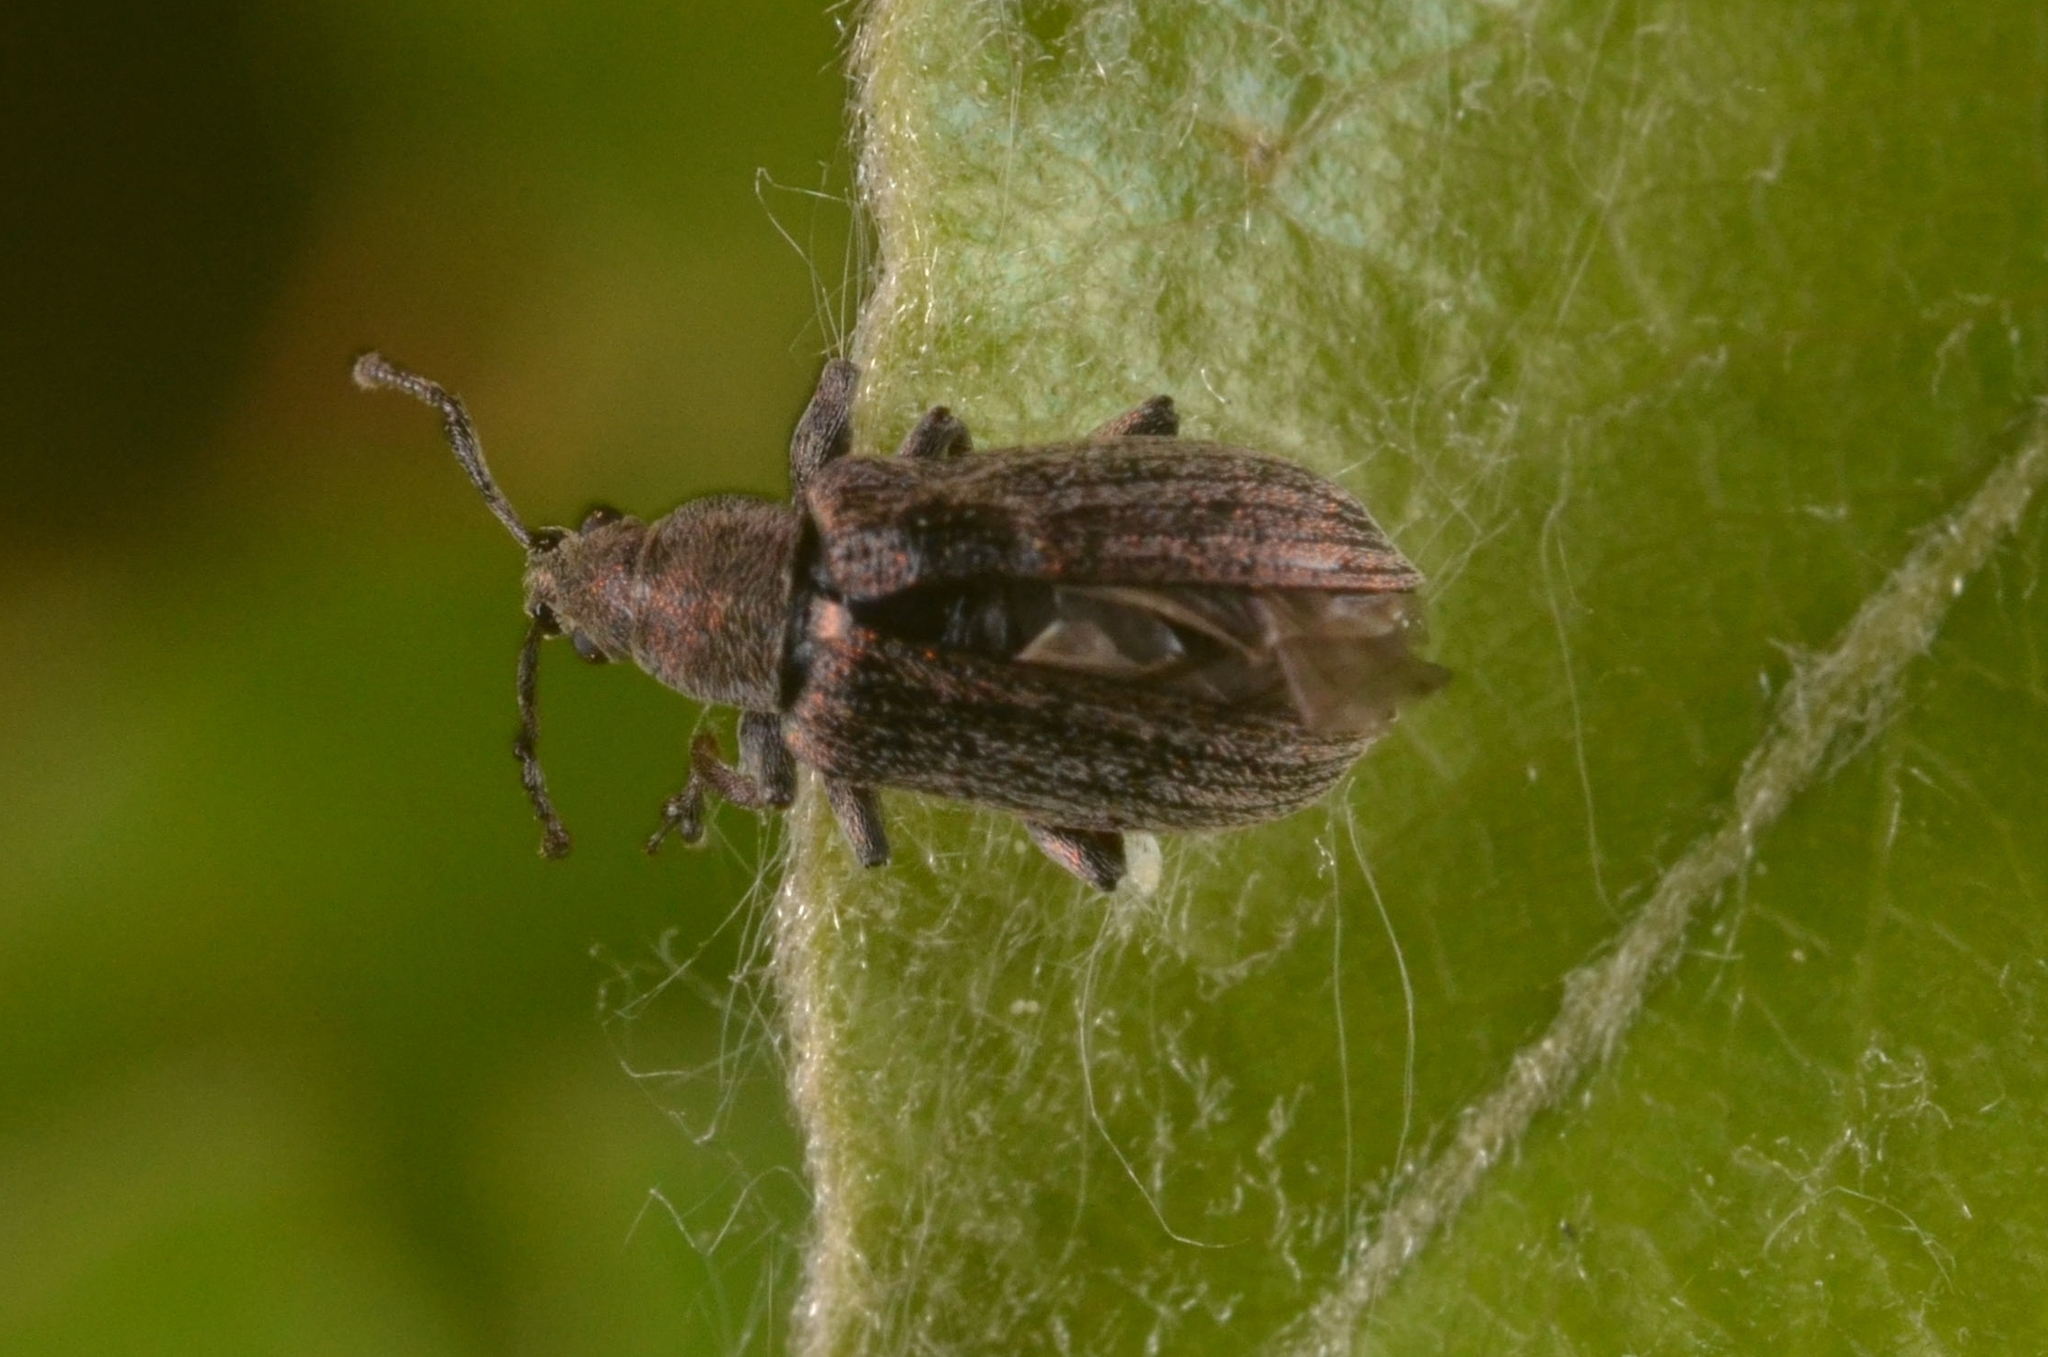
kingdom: Animalia
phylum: Arthropoda
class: Insecta
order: Coleoptera
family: Curculionidae
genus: Phyllobius
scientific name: Phyllobius pyri
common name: Common leaf weevil
